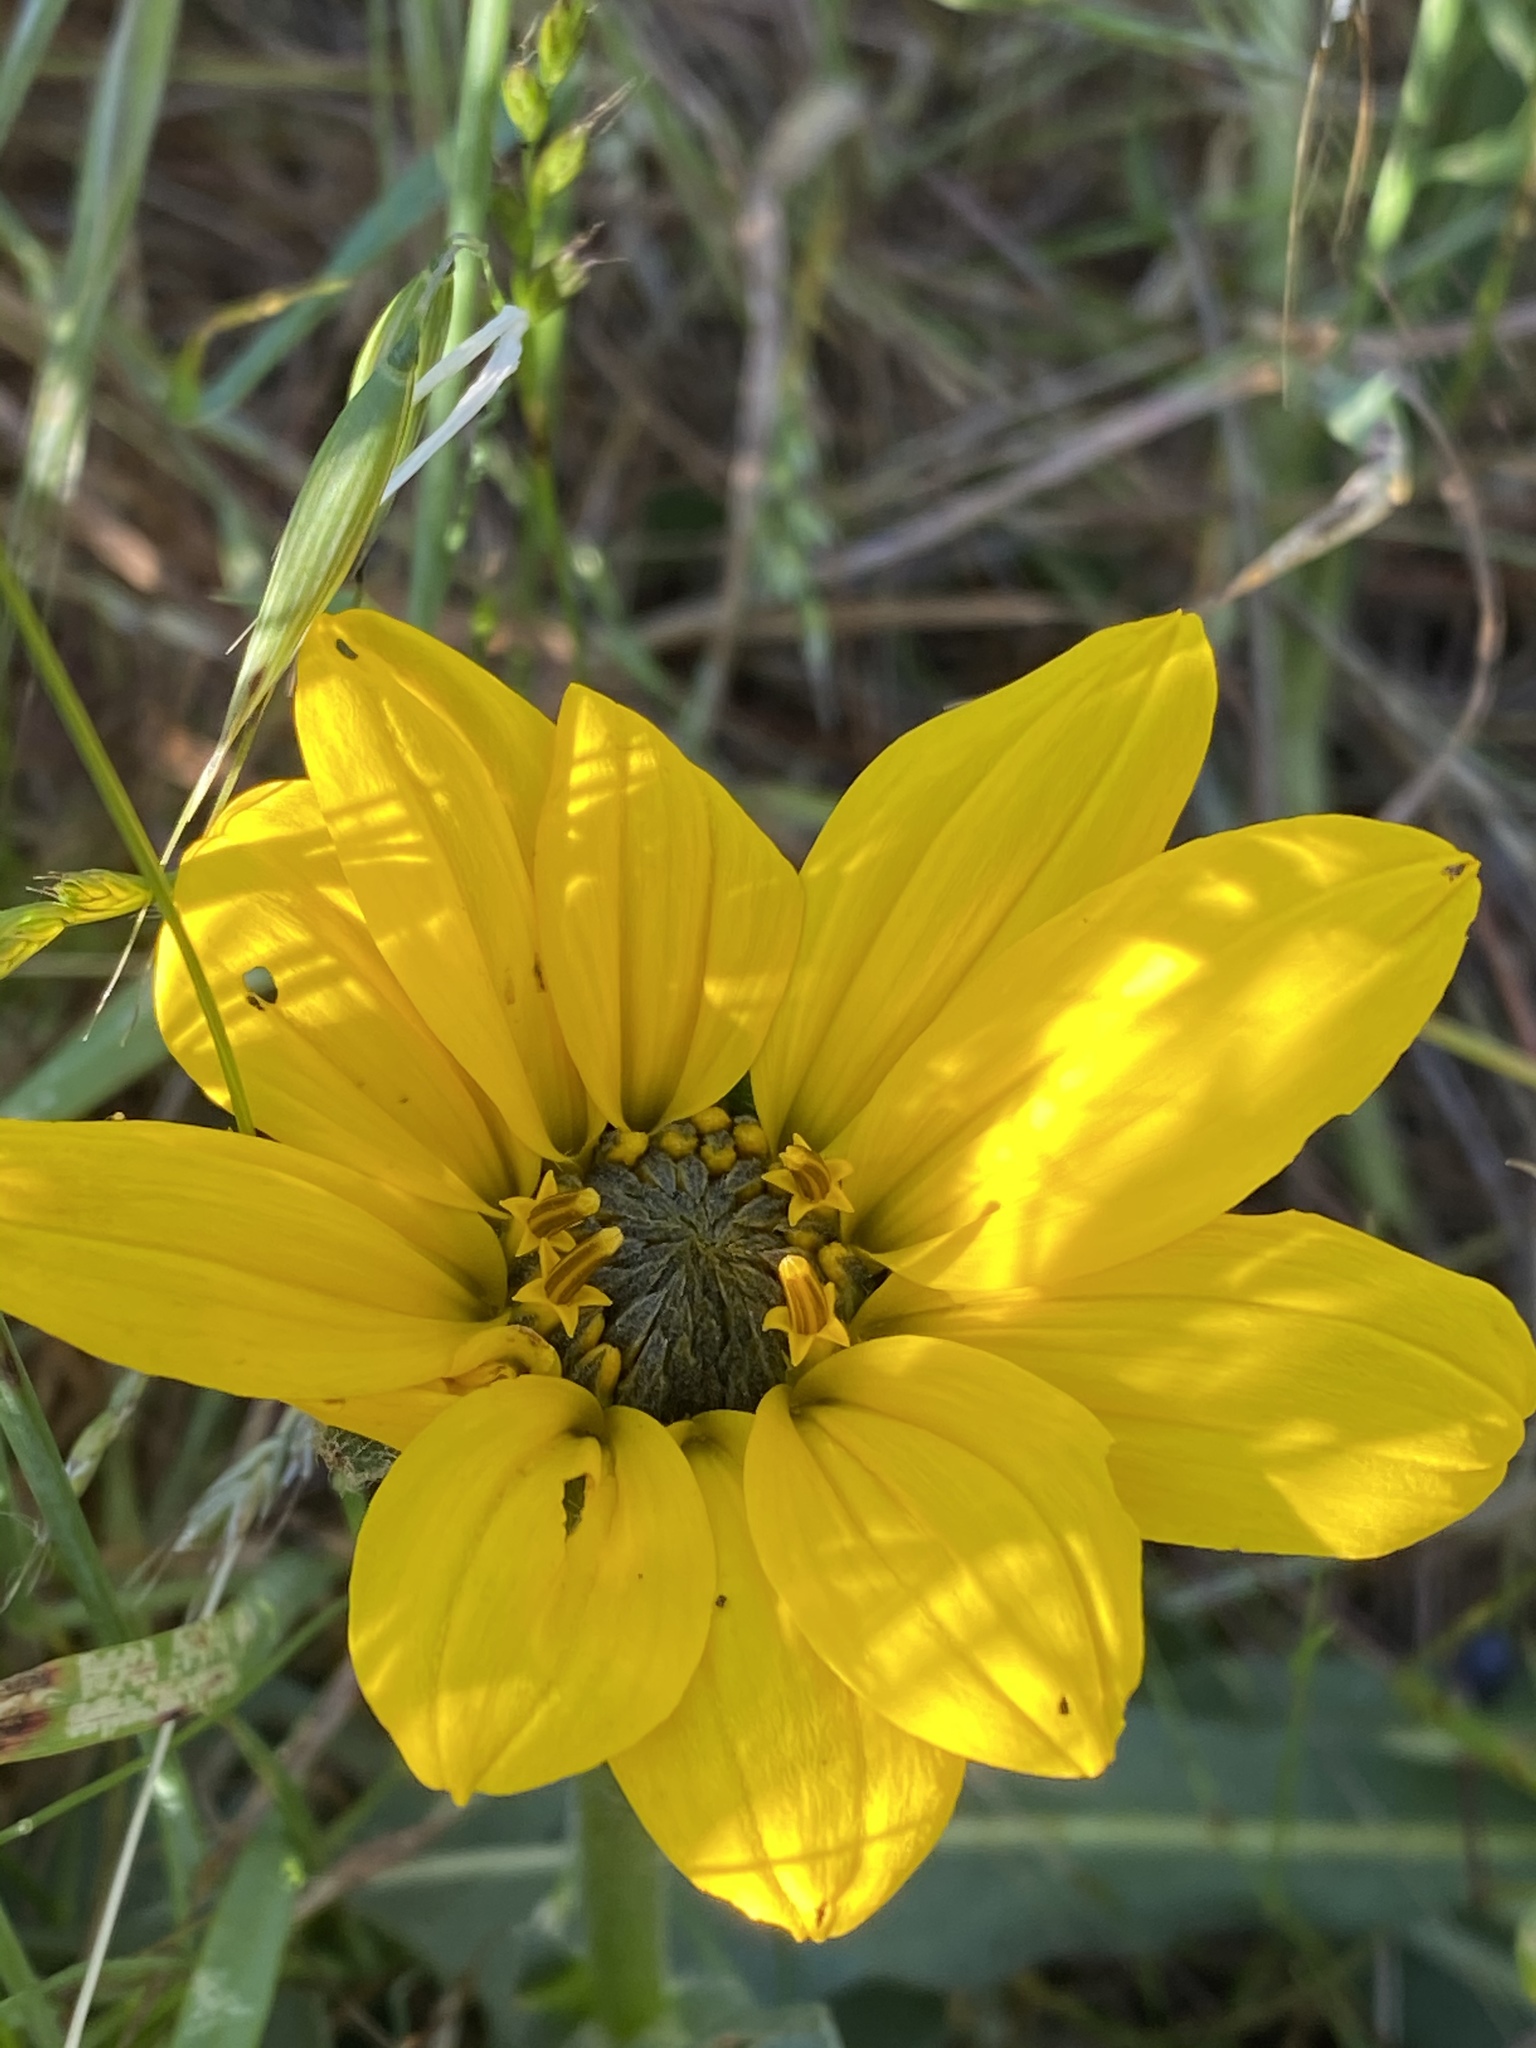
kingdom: Plantae
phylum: Tracheophyta
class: Magnoliopsida
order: Asterales
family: Asteraceae
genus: Wyethia
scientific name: Wyethia angustifolia
